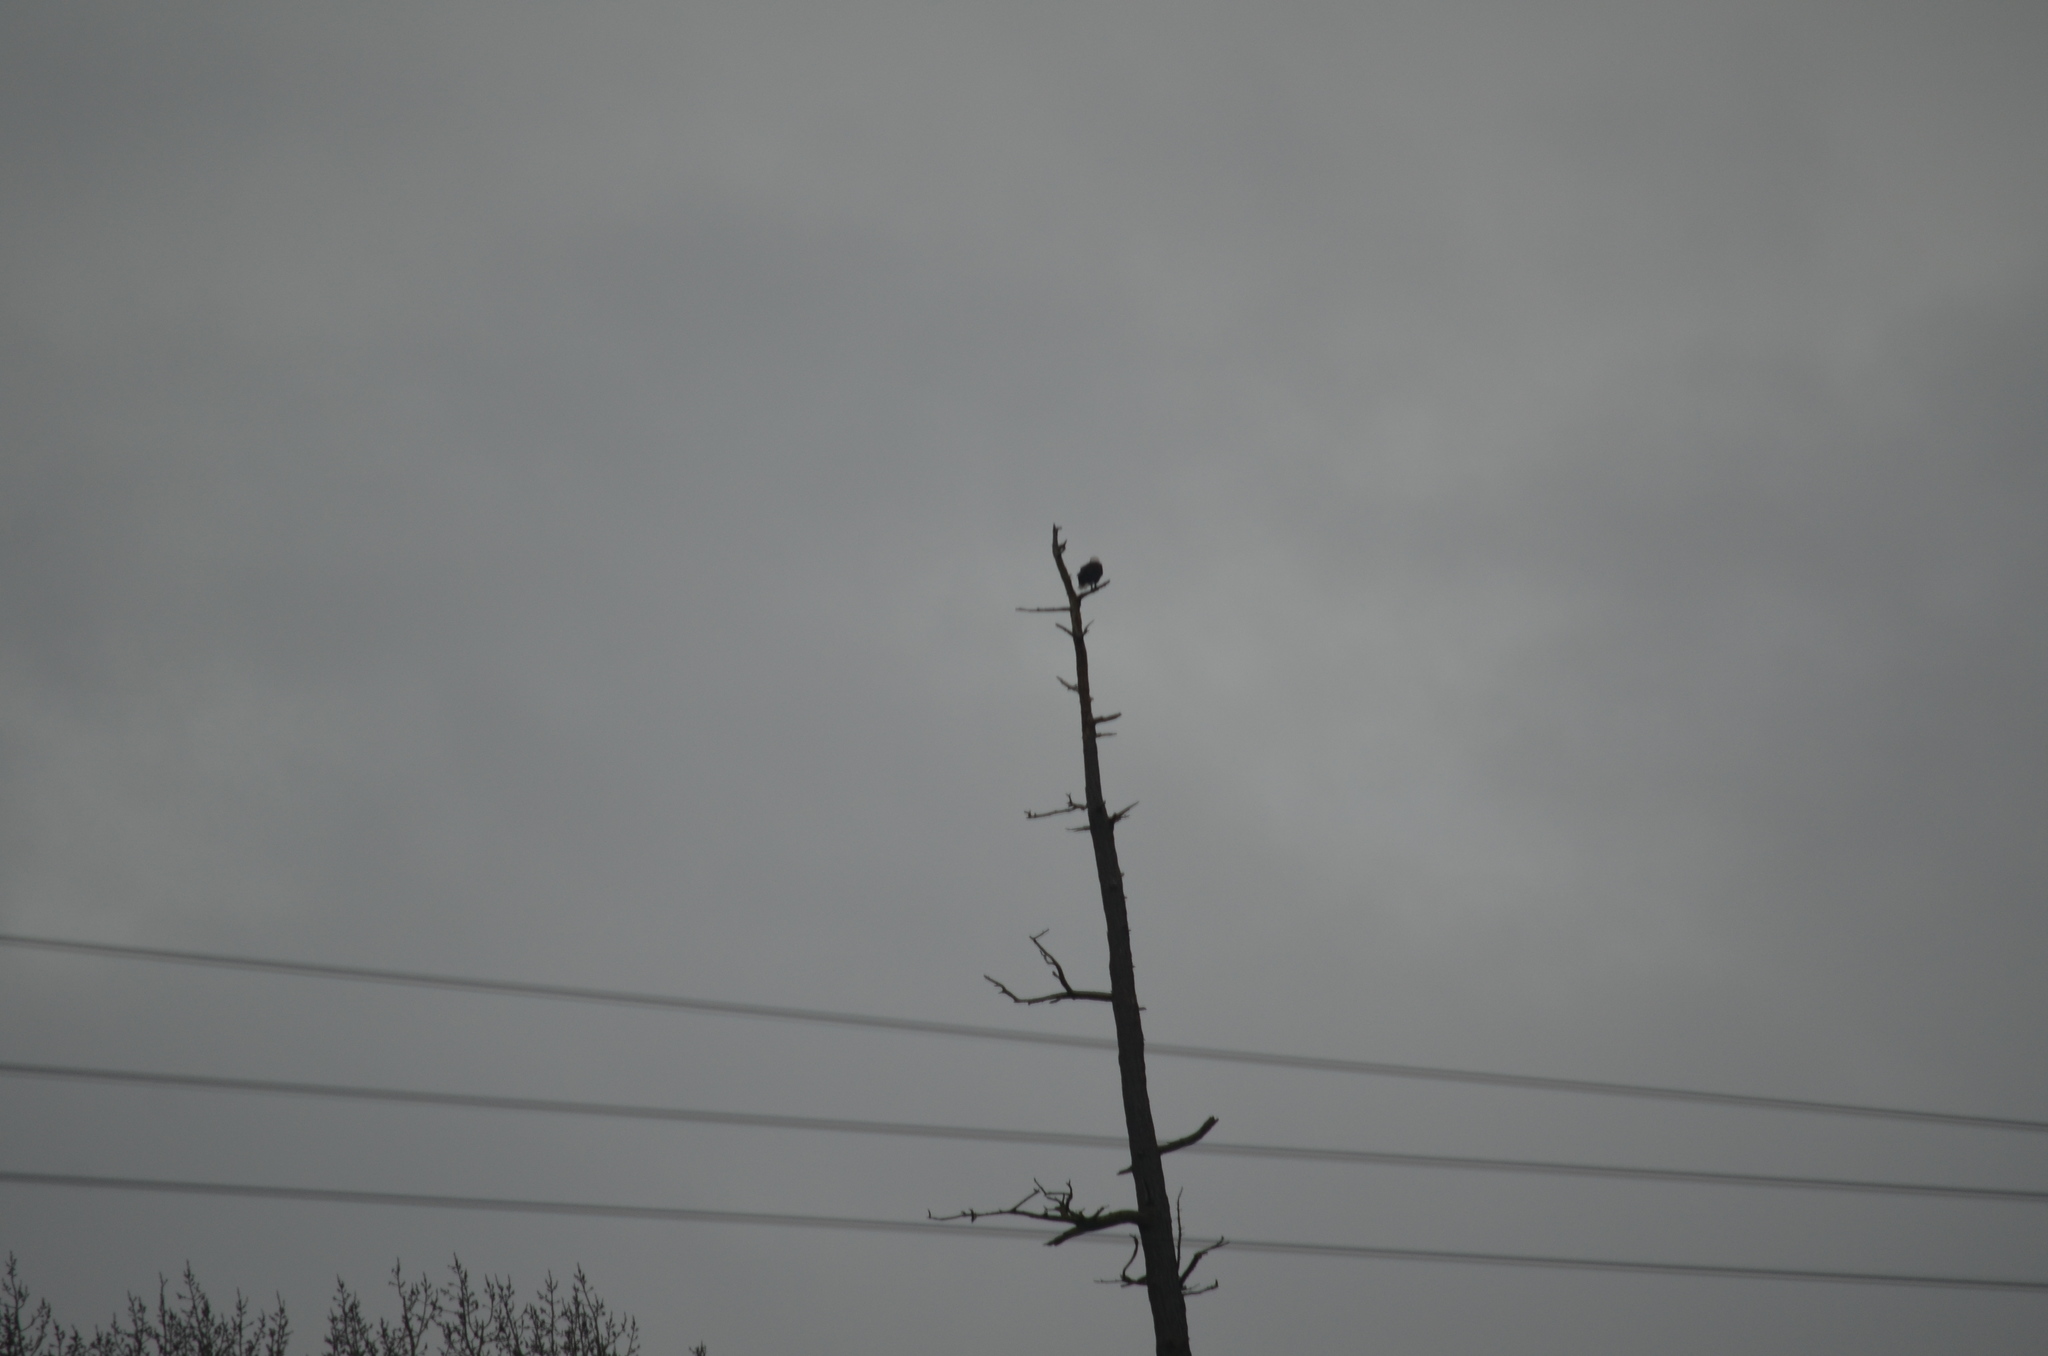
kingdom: Animalia
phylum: Chordata
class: Aves
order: Accipitriformes
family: Accipitridae
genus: Haliaeetus
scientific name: Haliaeetus leucocephalus
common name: Bald eagle
